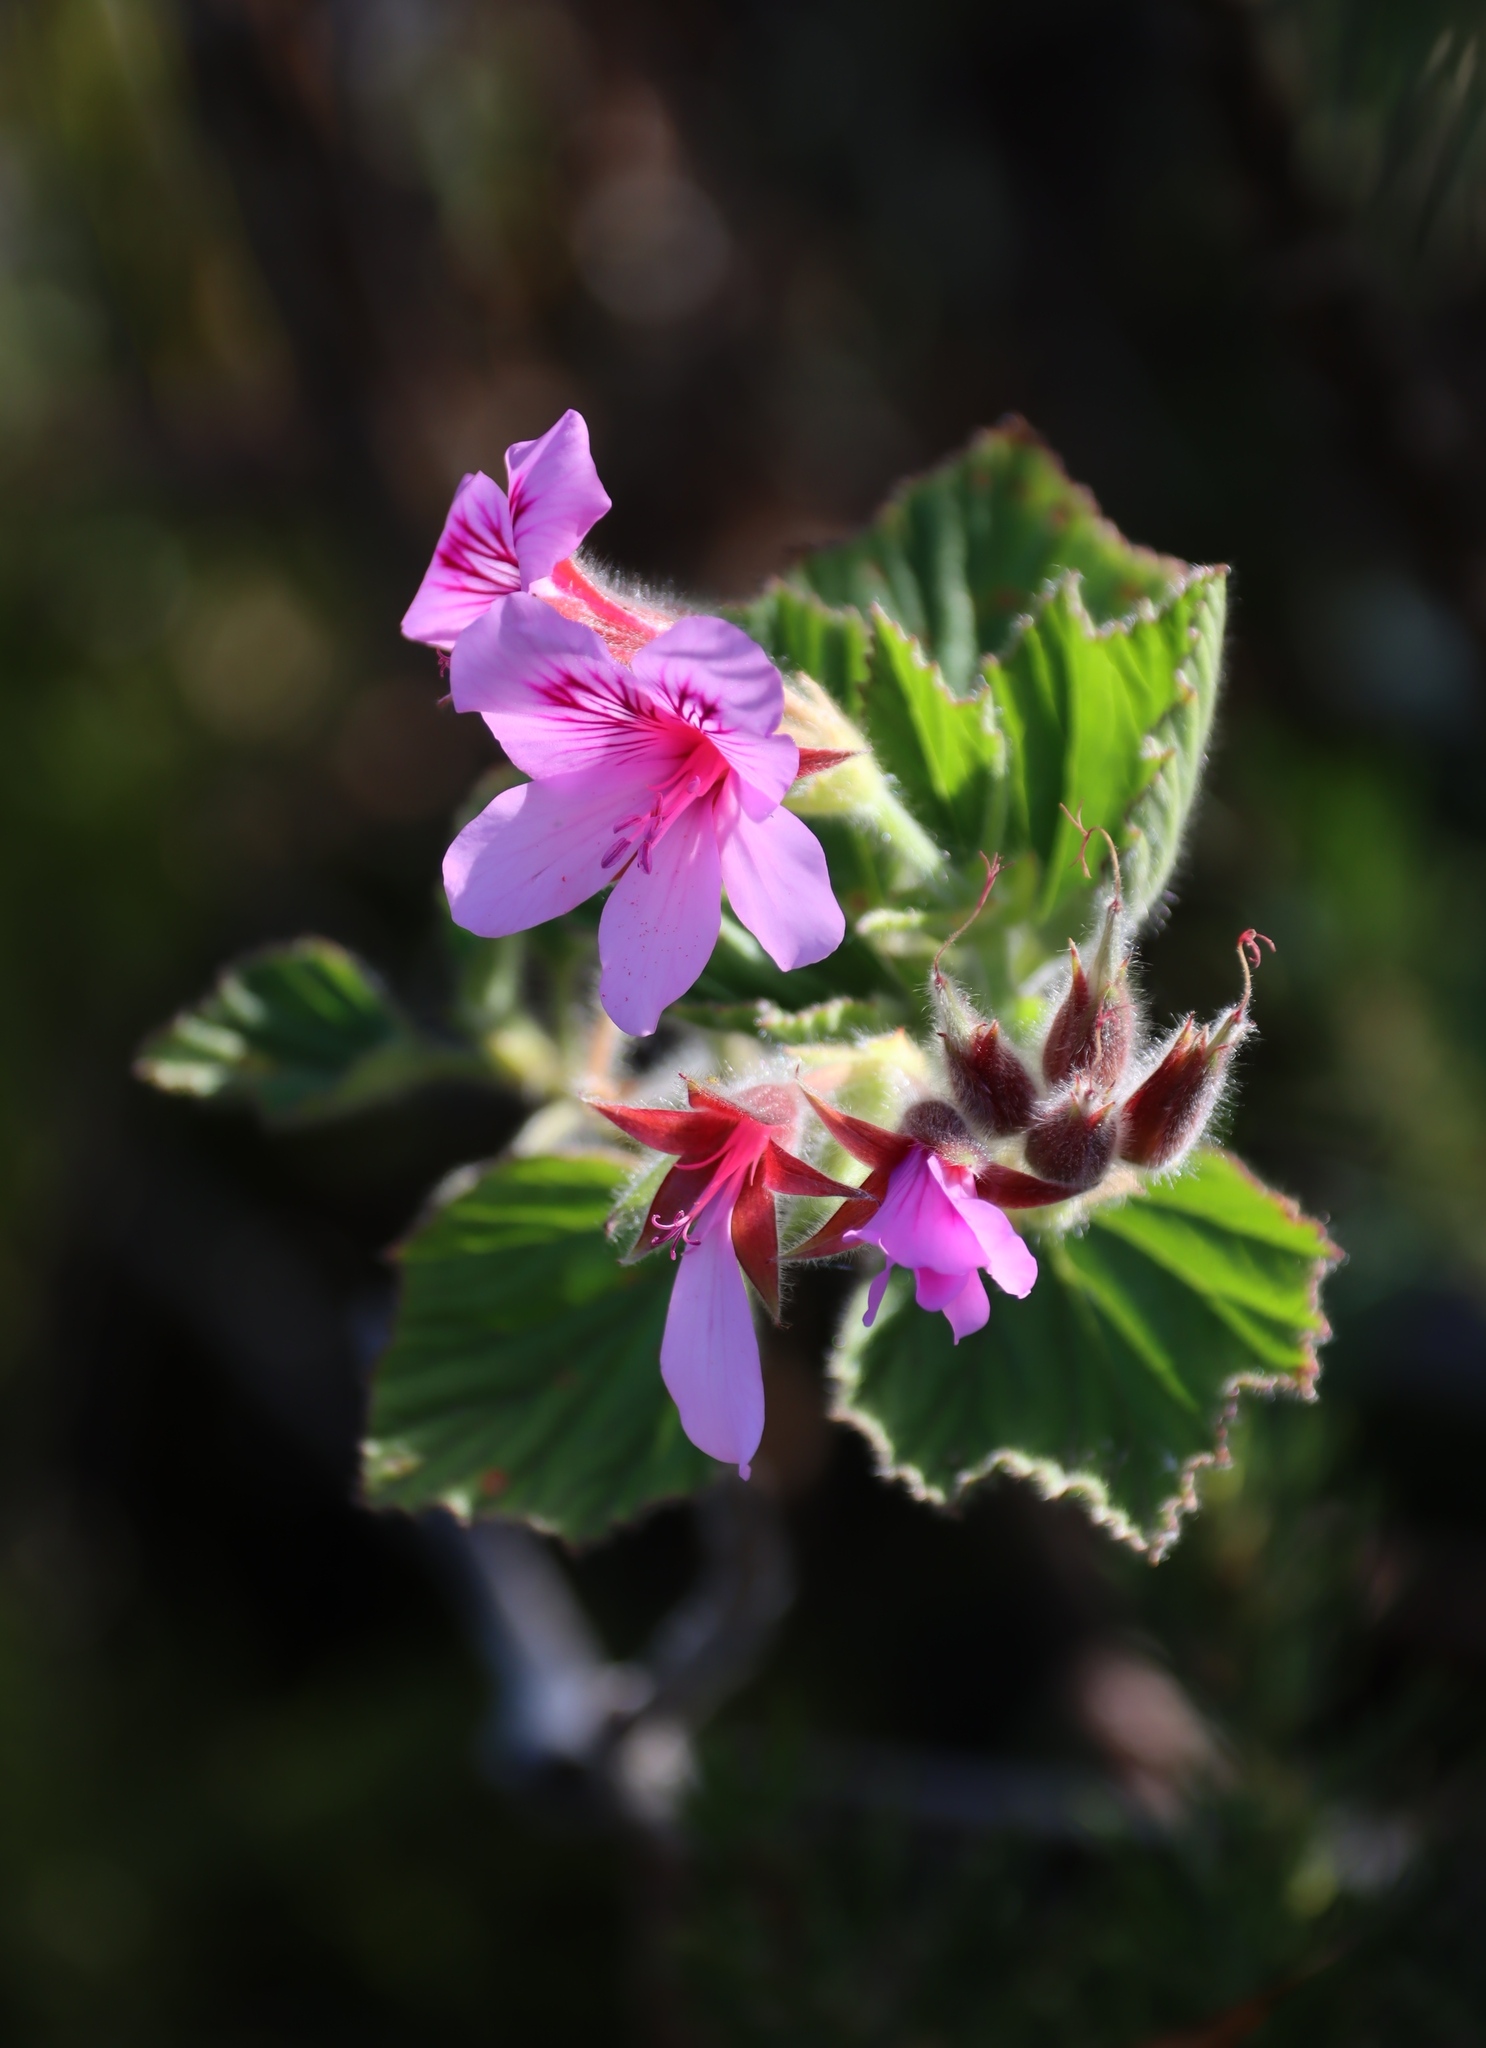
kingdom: Plantae
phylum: Tracheophyta
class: Magnoliopsida
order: Geraniales
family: Geraniaceae
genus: Pelargonium
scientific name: Pelargonium cucullatum
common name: Tree pelargonium
